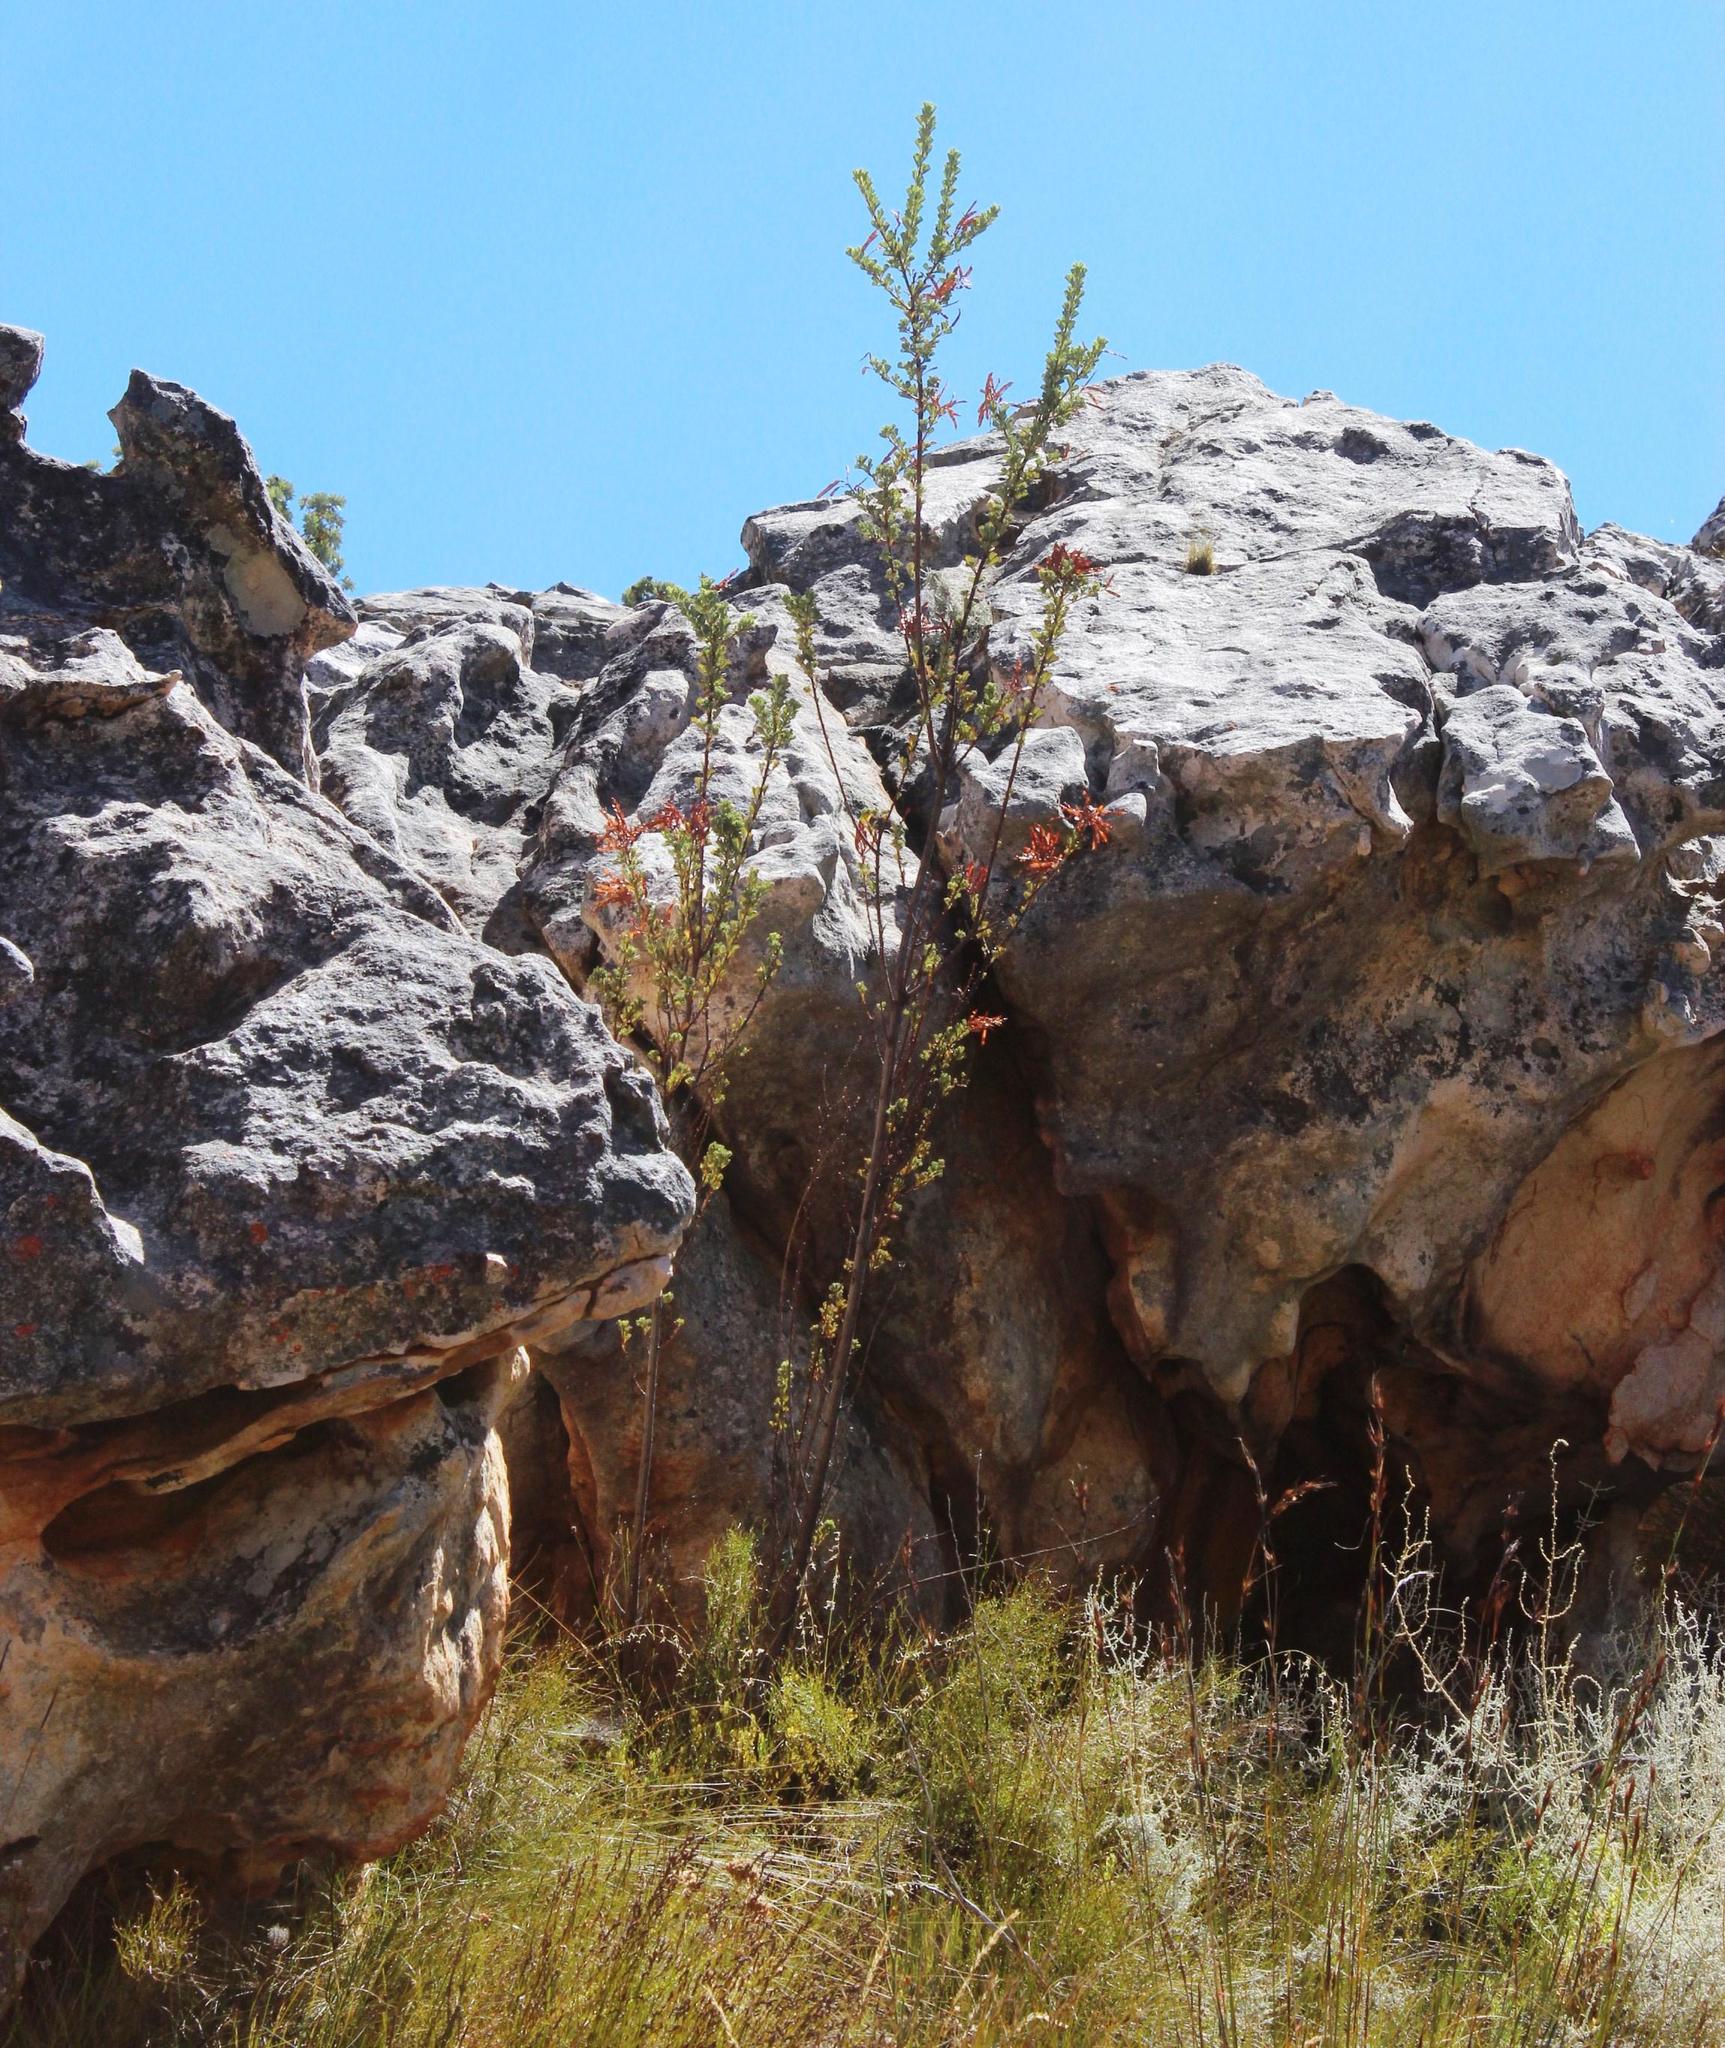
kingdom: Plantae
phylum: Tracheophyta
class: Magnoliopsida
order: Fabales
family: Fabaceae
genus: Hypocalyptus
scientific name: Hypocalyptus sophoroides
